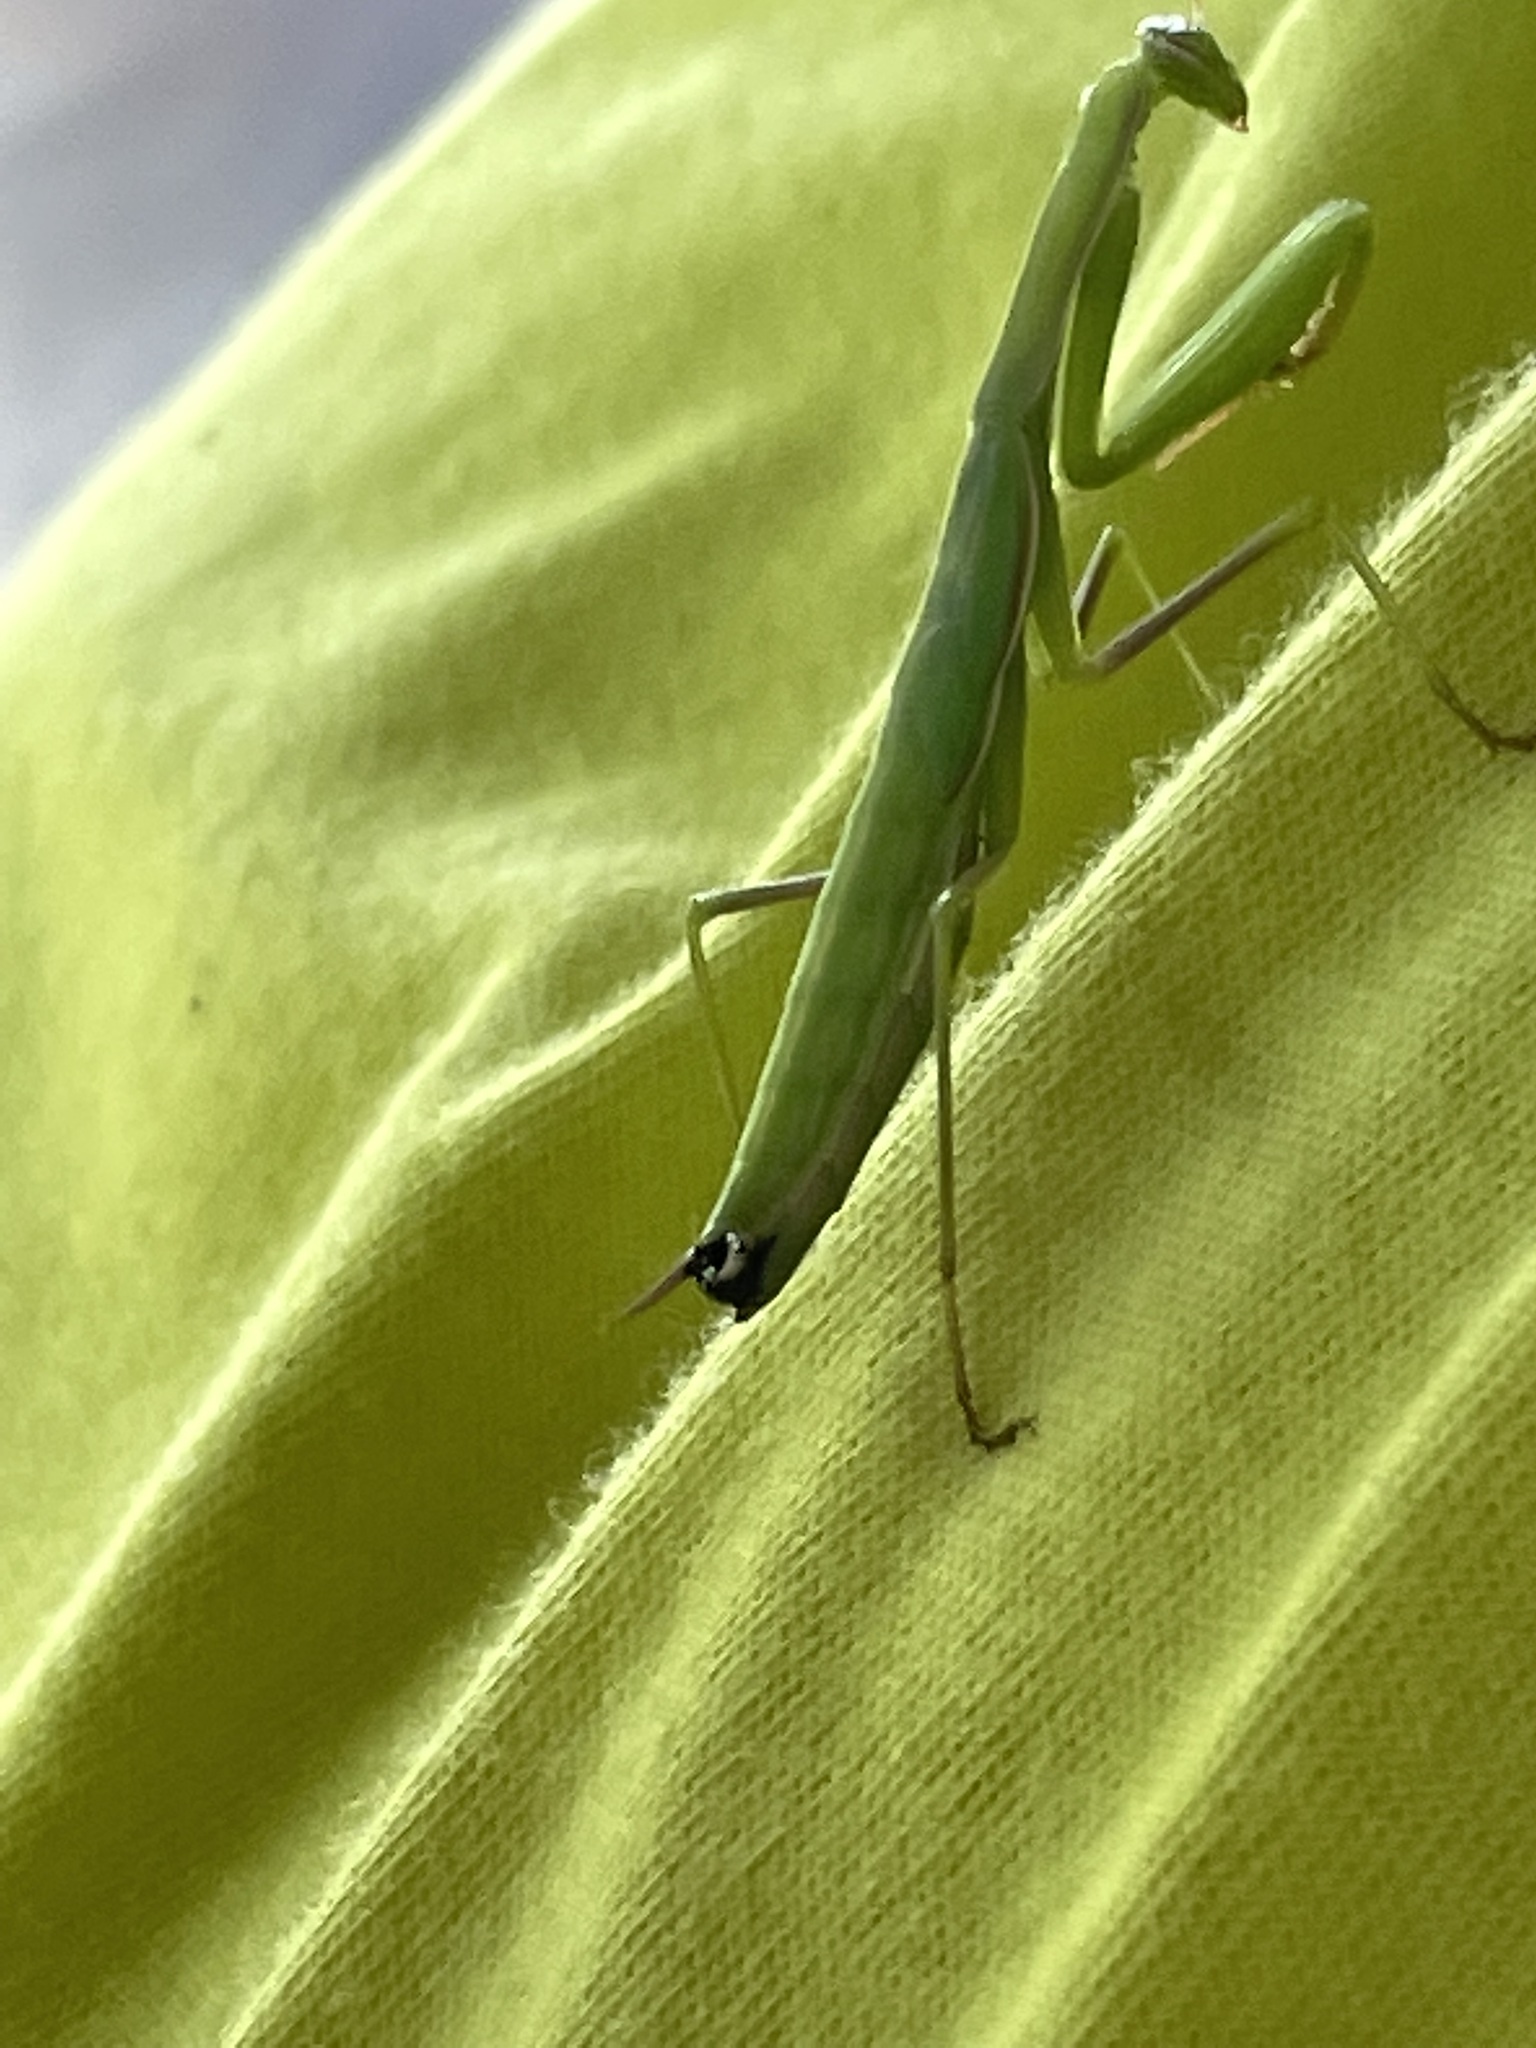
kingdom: Animalia
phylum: Arthropoda
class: Insecta
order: Mantodea
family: Mantidae
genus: Mantis
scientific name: Mantis religiosa
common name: Praying mantis
